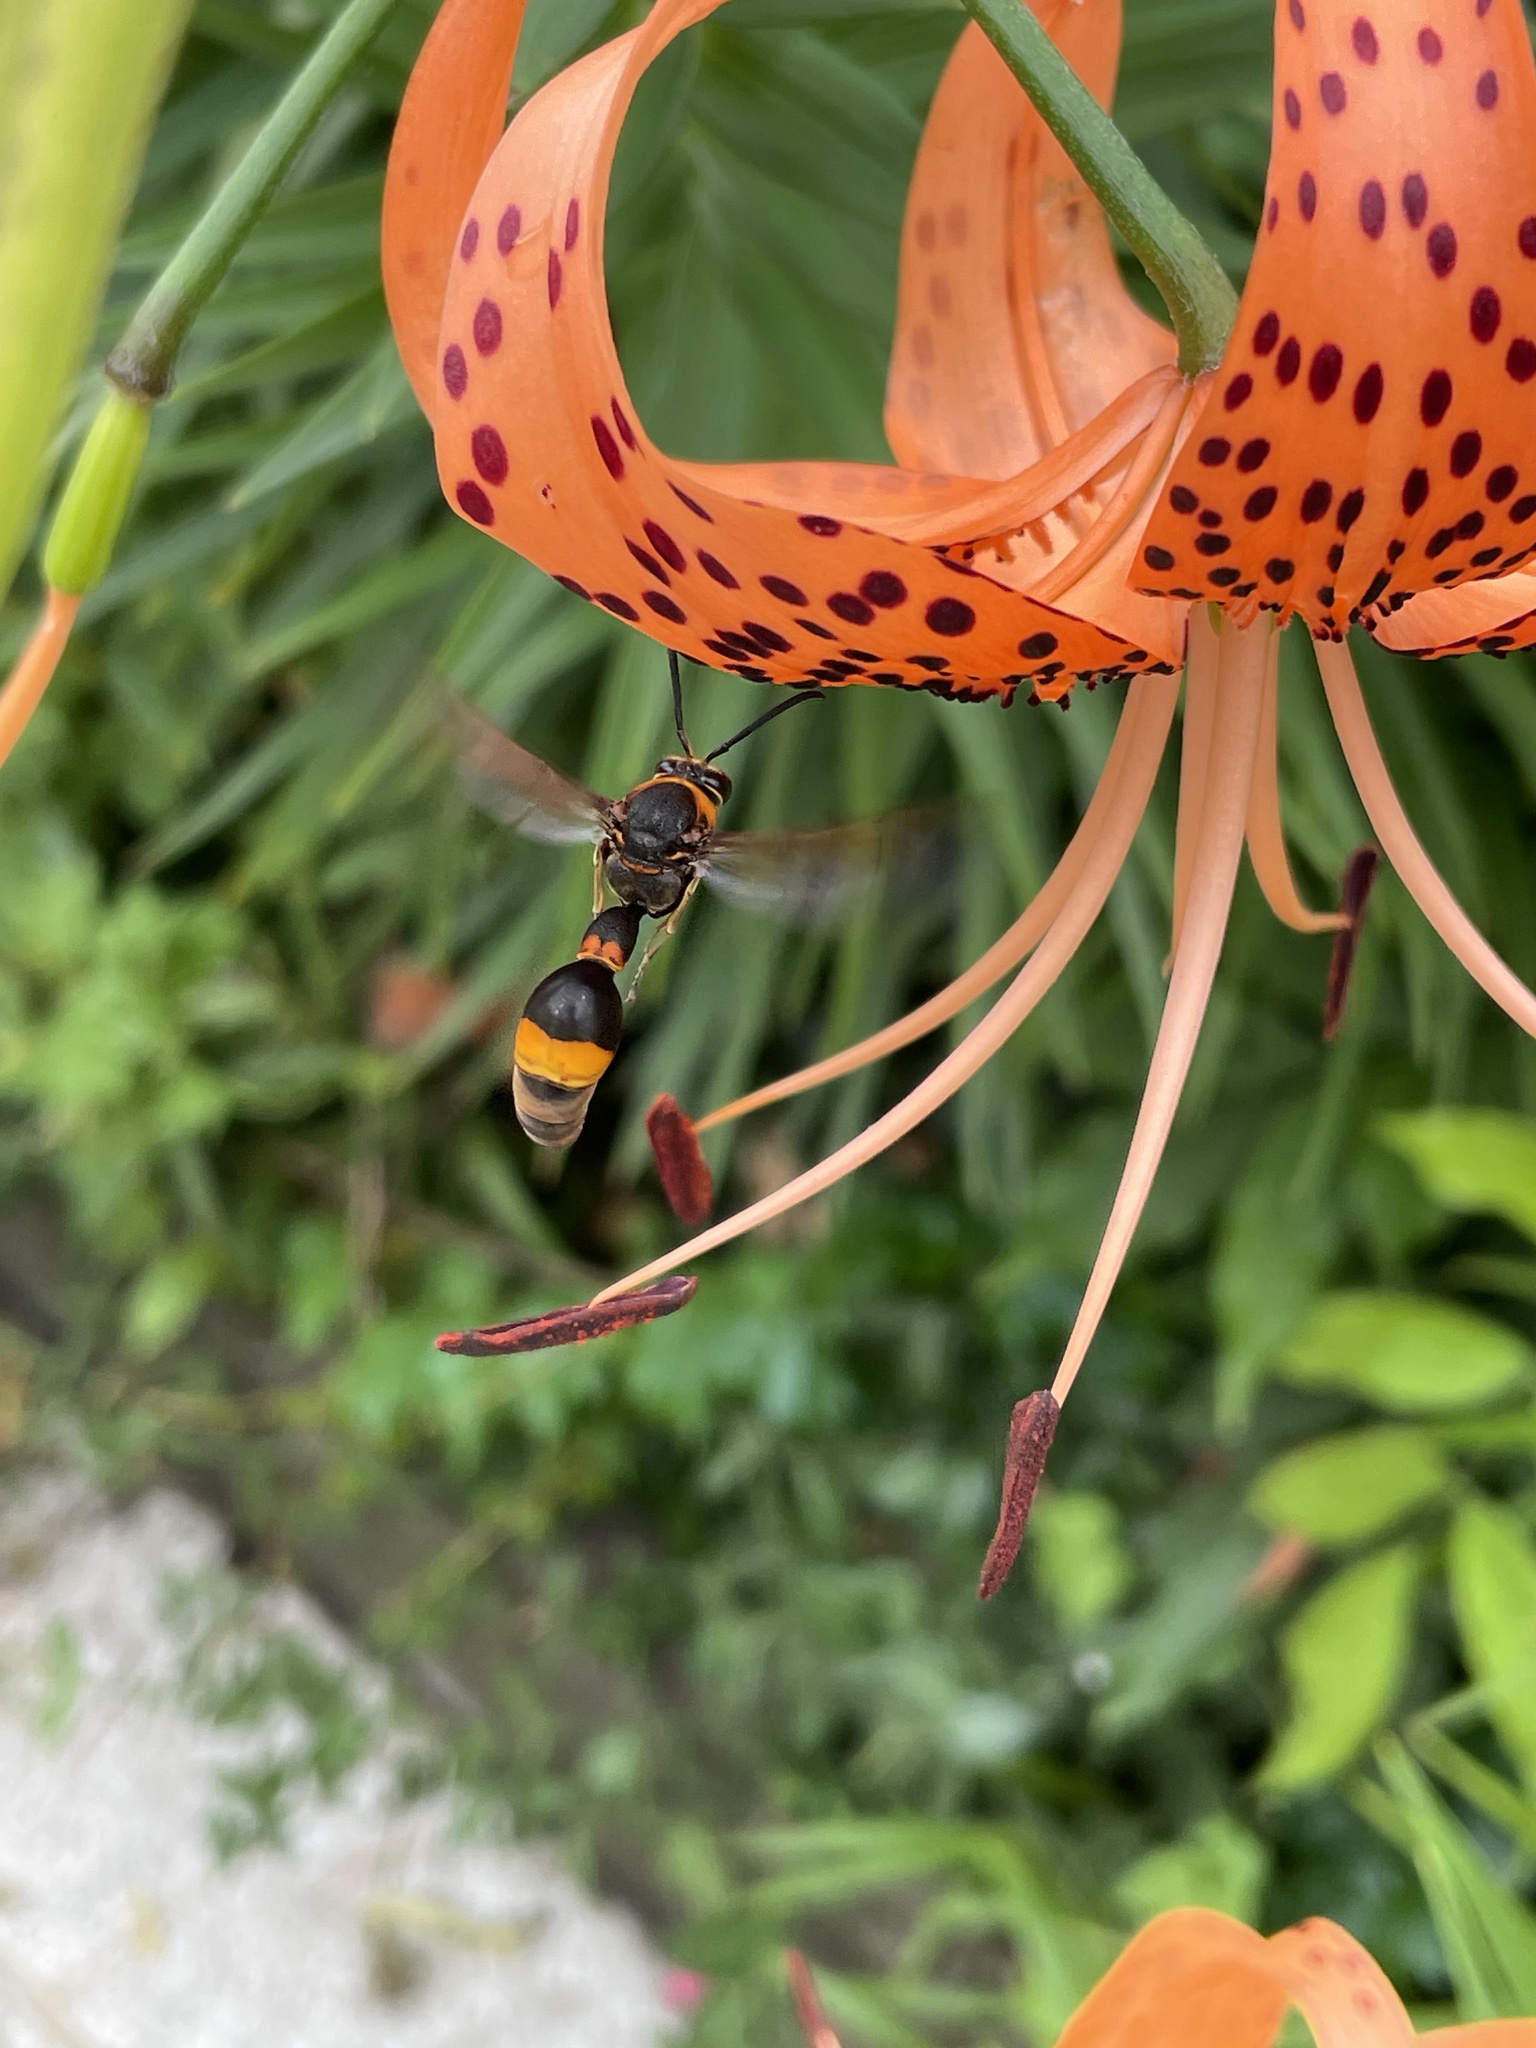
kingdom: Animalia
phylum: Arthropoda
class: Insecta
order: Hymenoptera
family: Eumenidae
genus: Oreumenes
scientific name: Oreumenes decoratus
